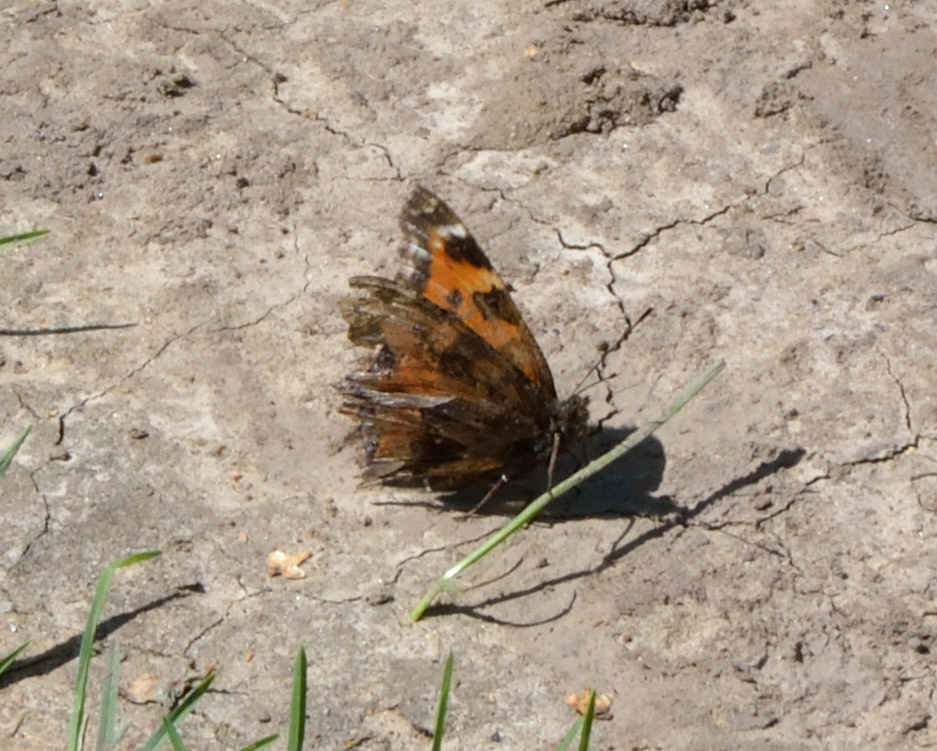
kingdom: Animalia
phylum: Arthropoda
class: Insecta
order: Lepidoptera
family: Nymphalidae
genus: Nymphalis
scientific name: Nymphalis xanthomelas
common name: Scarce tortoiseshell
